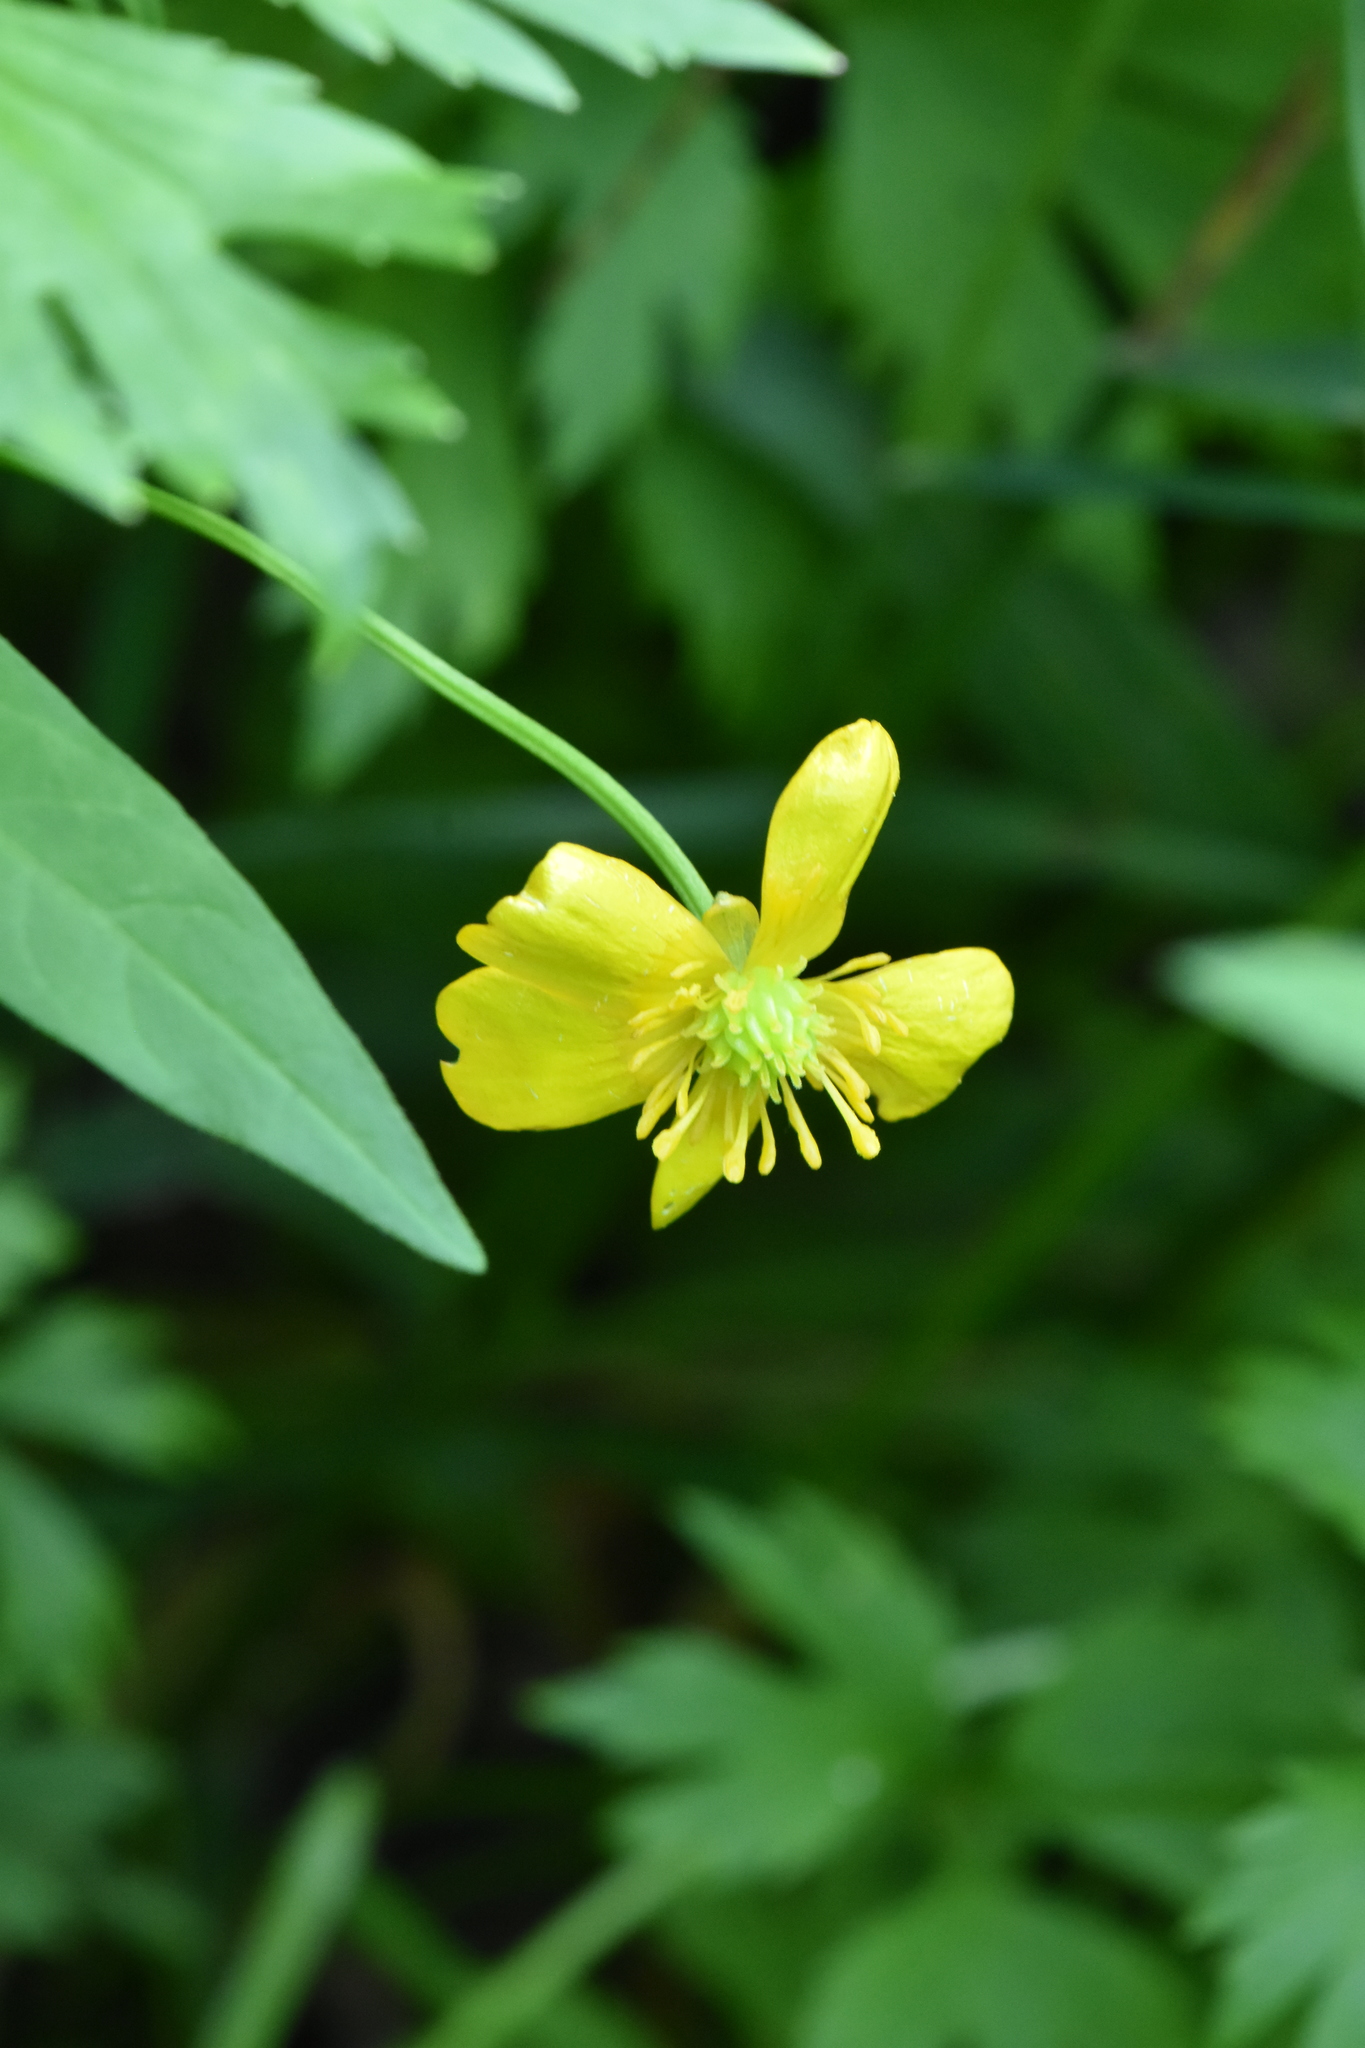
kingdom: Plantae
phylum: Tracheophyta
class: Magnoliopsida
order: Ranunculales
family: Ranunculaceae
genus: Ranunculus
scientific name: Ranunculus repens
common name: Creeping buttercup
